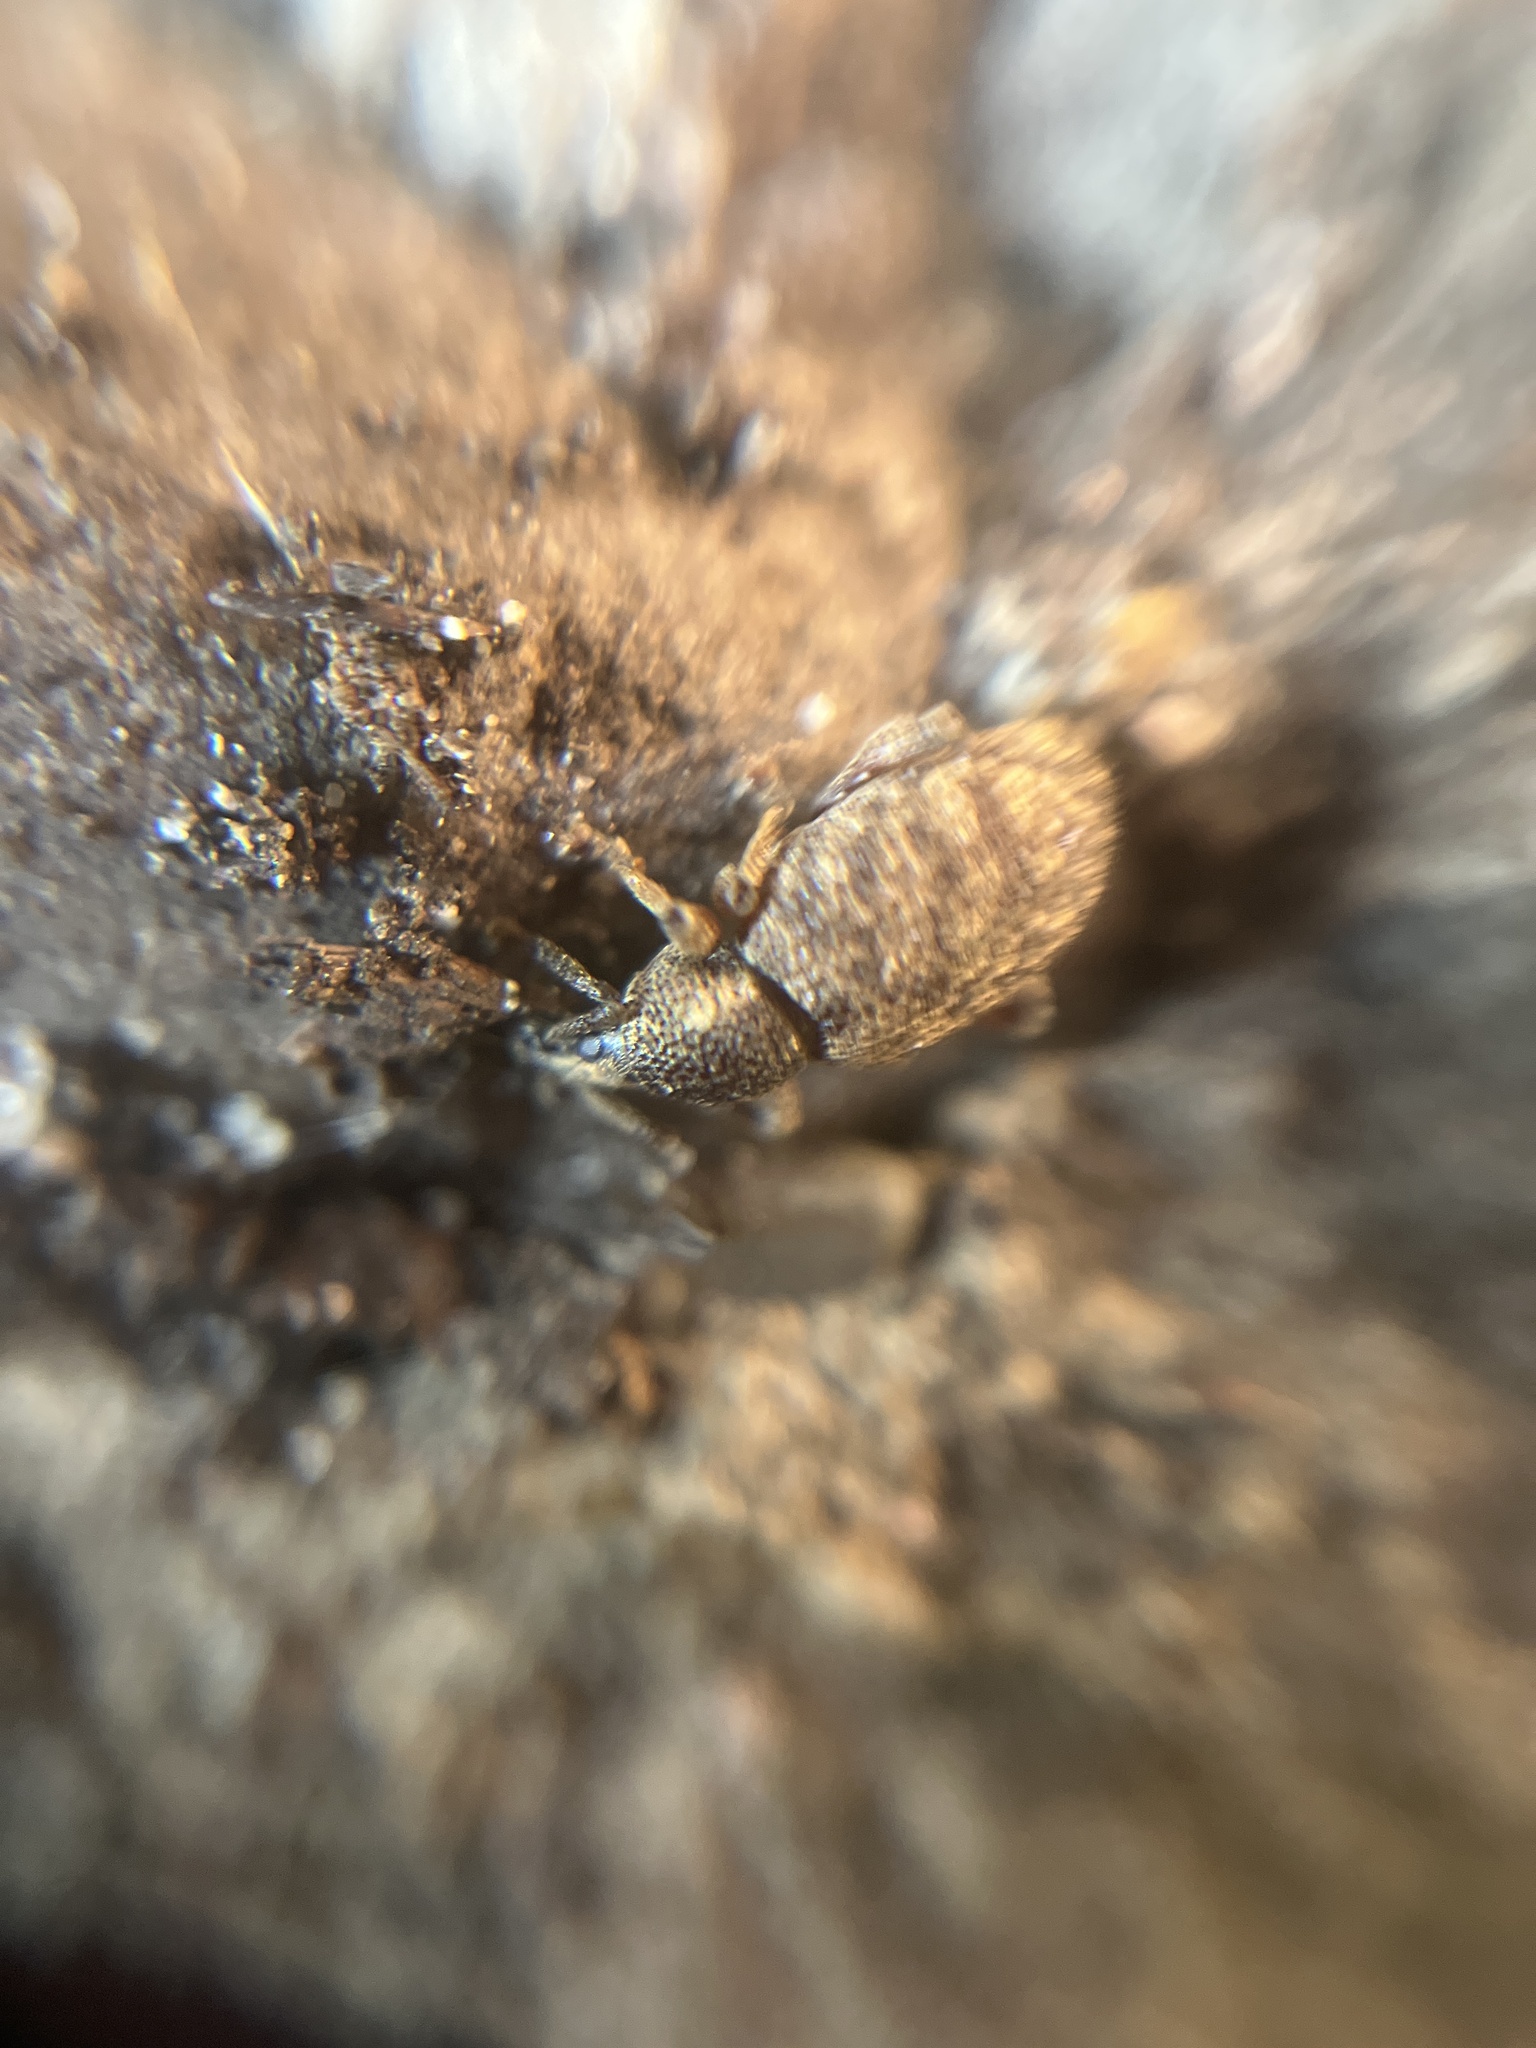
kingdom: Animalia
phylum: Arthropoda
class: Insecta
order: Coleoptera
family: Curculionidae
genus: Otiorhynchus
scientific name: Otiorhynchus singularis
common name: Clay-coloured weevil
